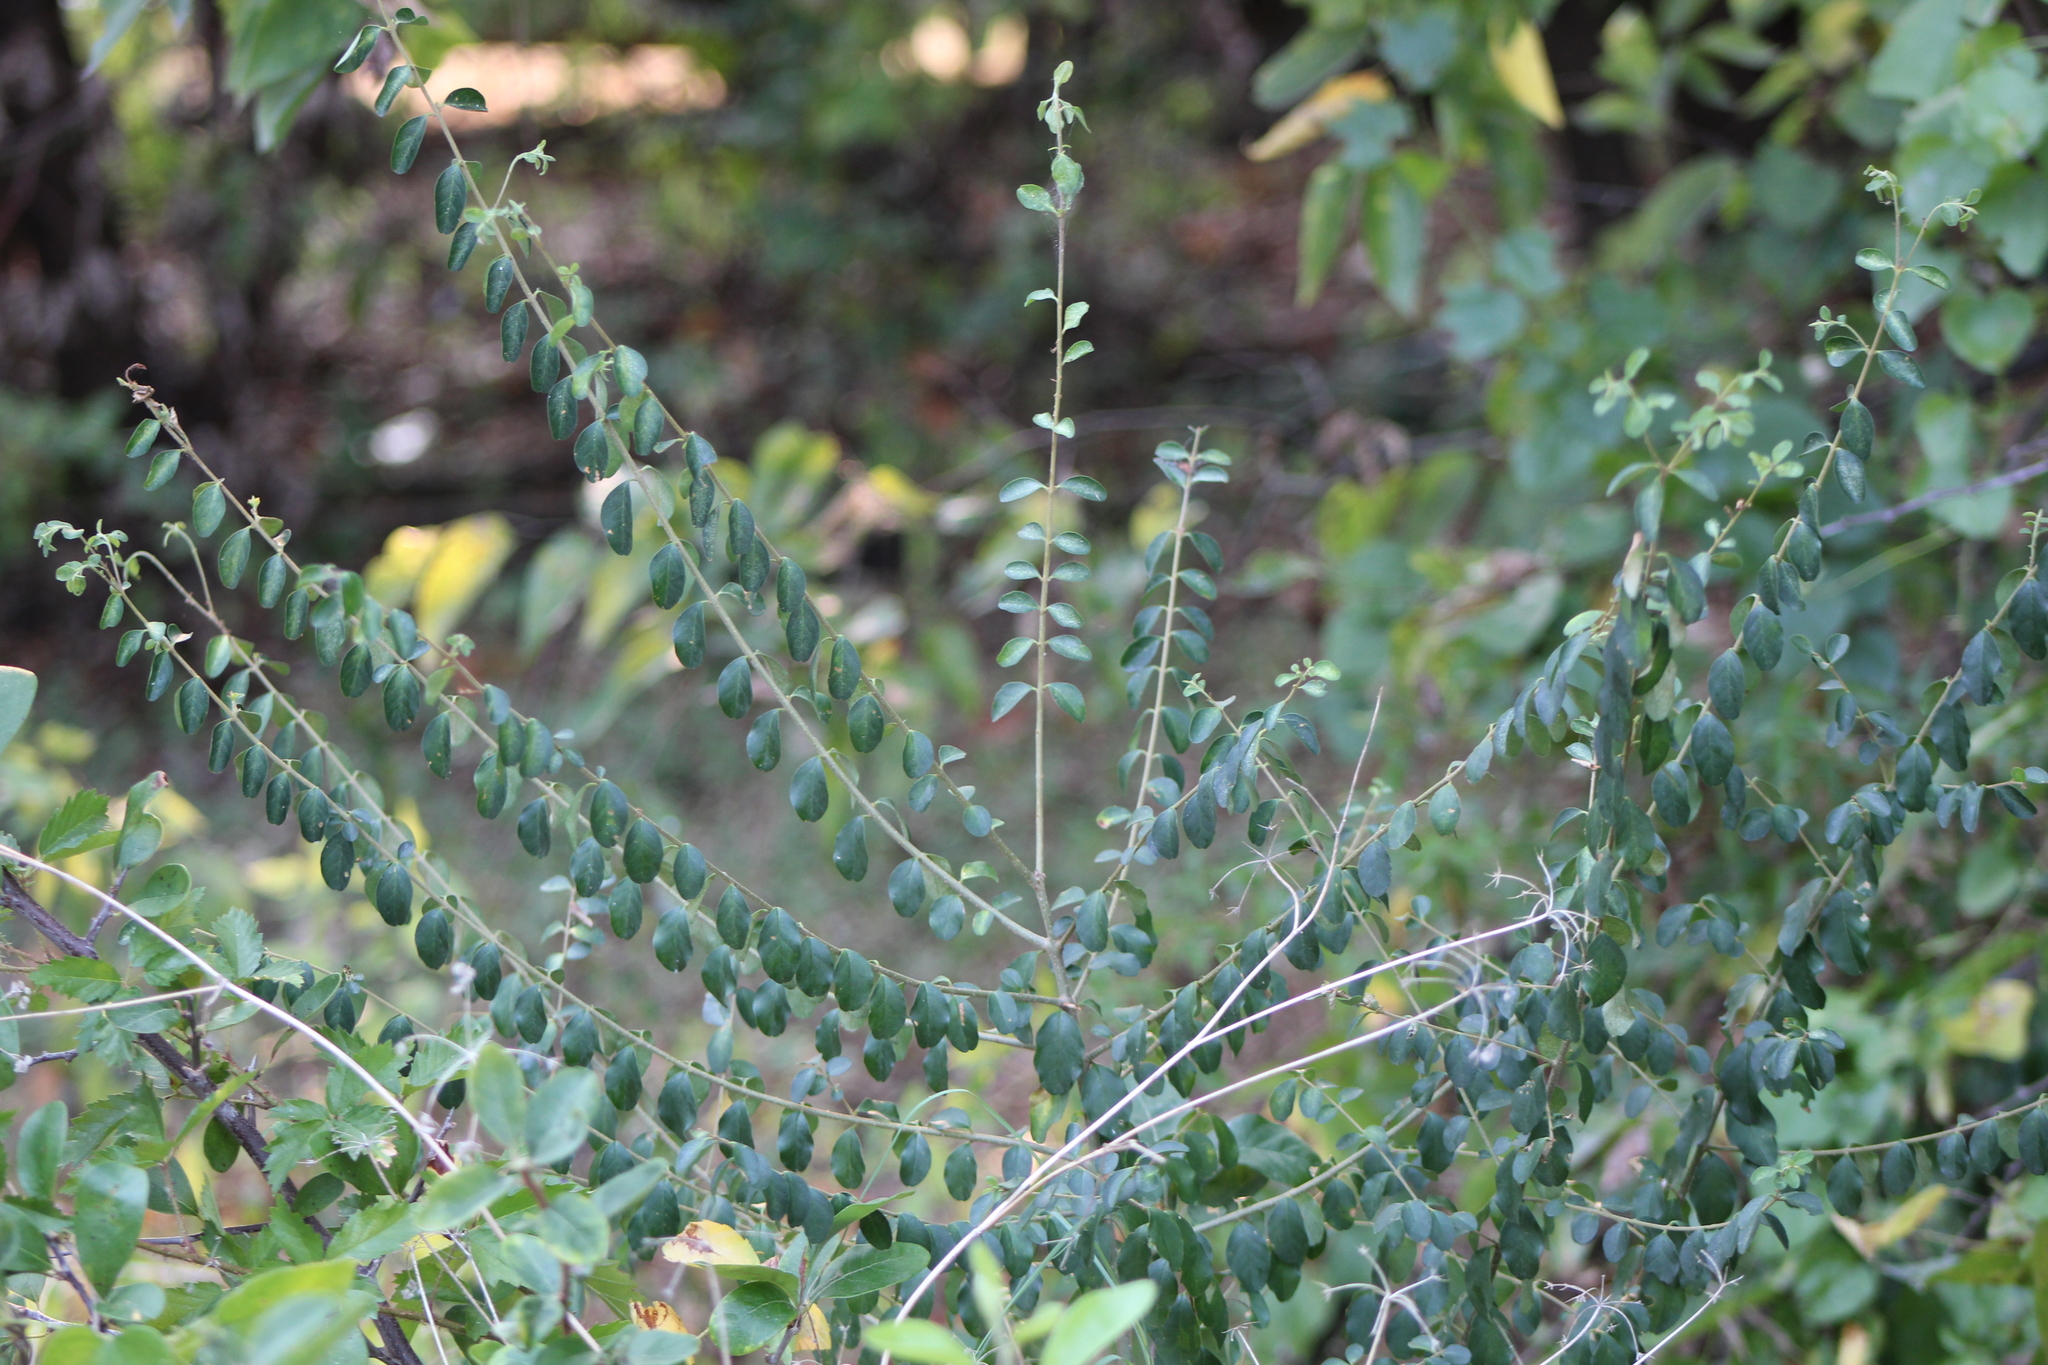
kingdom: Plantae
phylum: Tracheophyta
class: Magnoliopsida
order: Lamiales
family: Oleaceae
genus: Ligustrum
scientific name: Ligustrum quihoui
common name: Waxyleaf privet
